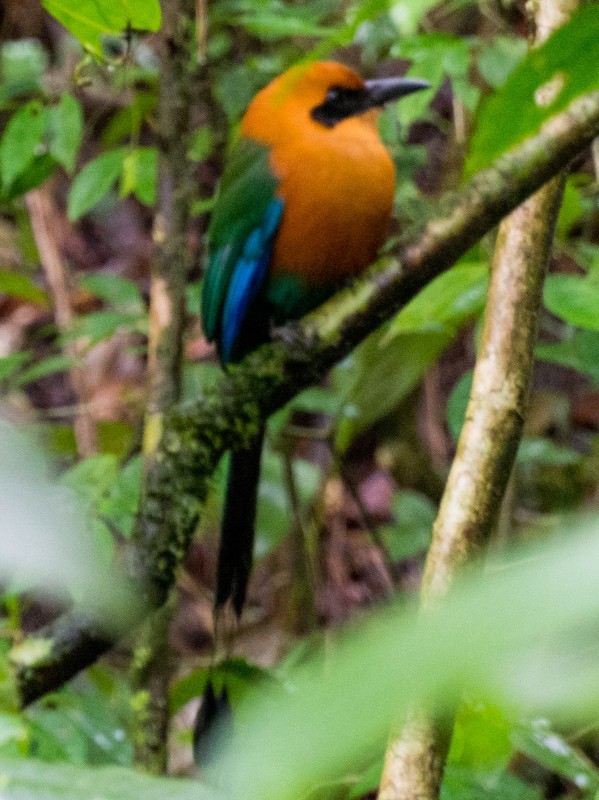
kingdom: Animalia
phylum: Chordata
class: Aves
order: Coraciiformes
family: Momotidae
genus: Baryphthengus
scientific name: Baryphthengus martii
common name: Rufous motmot
